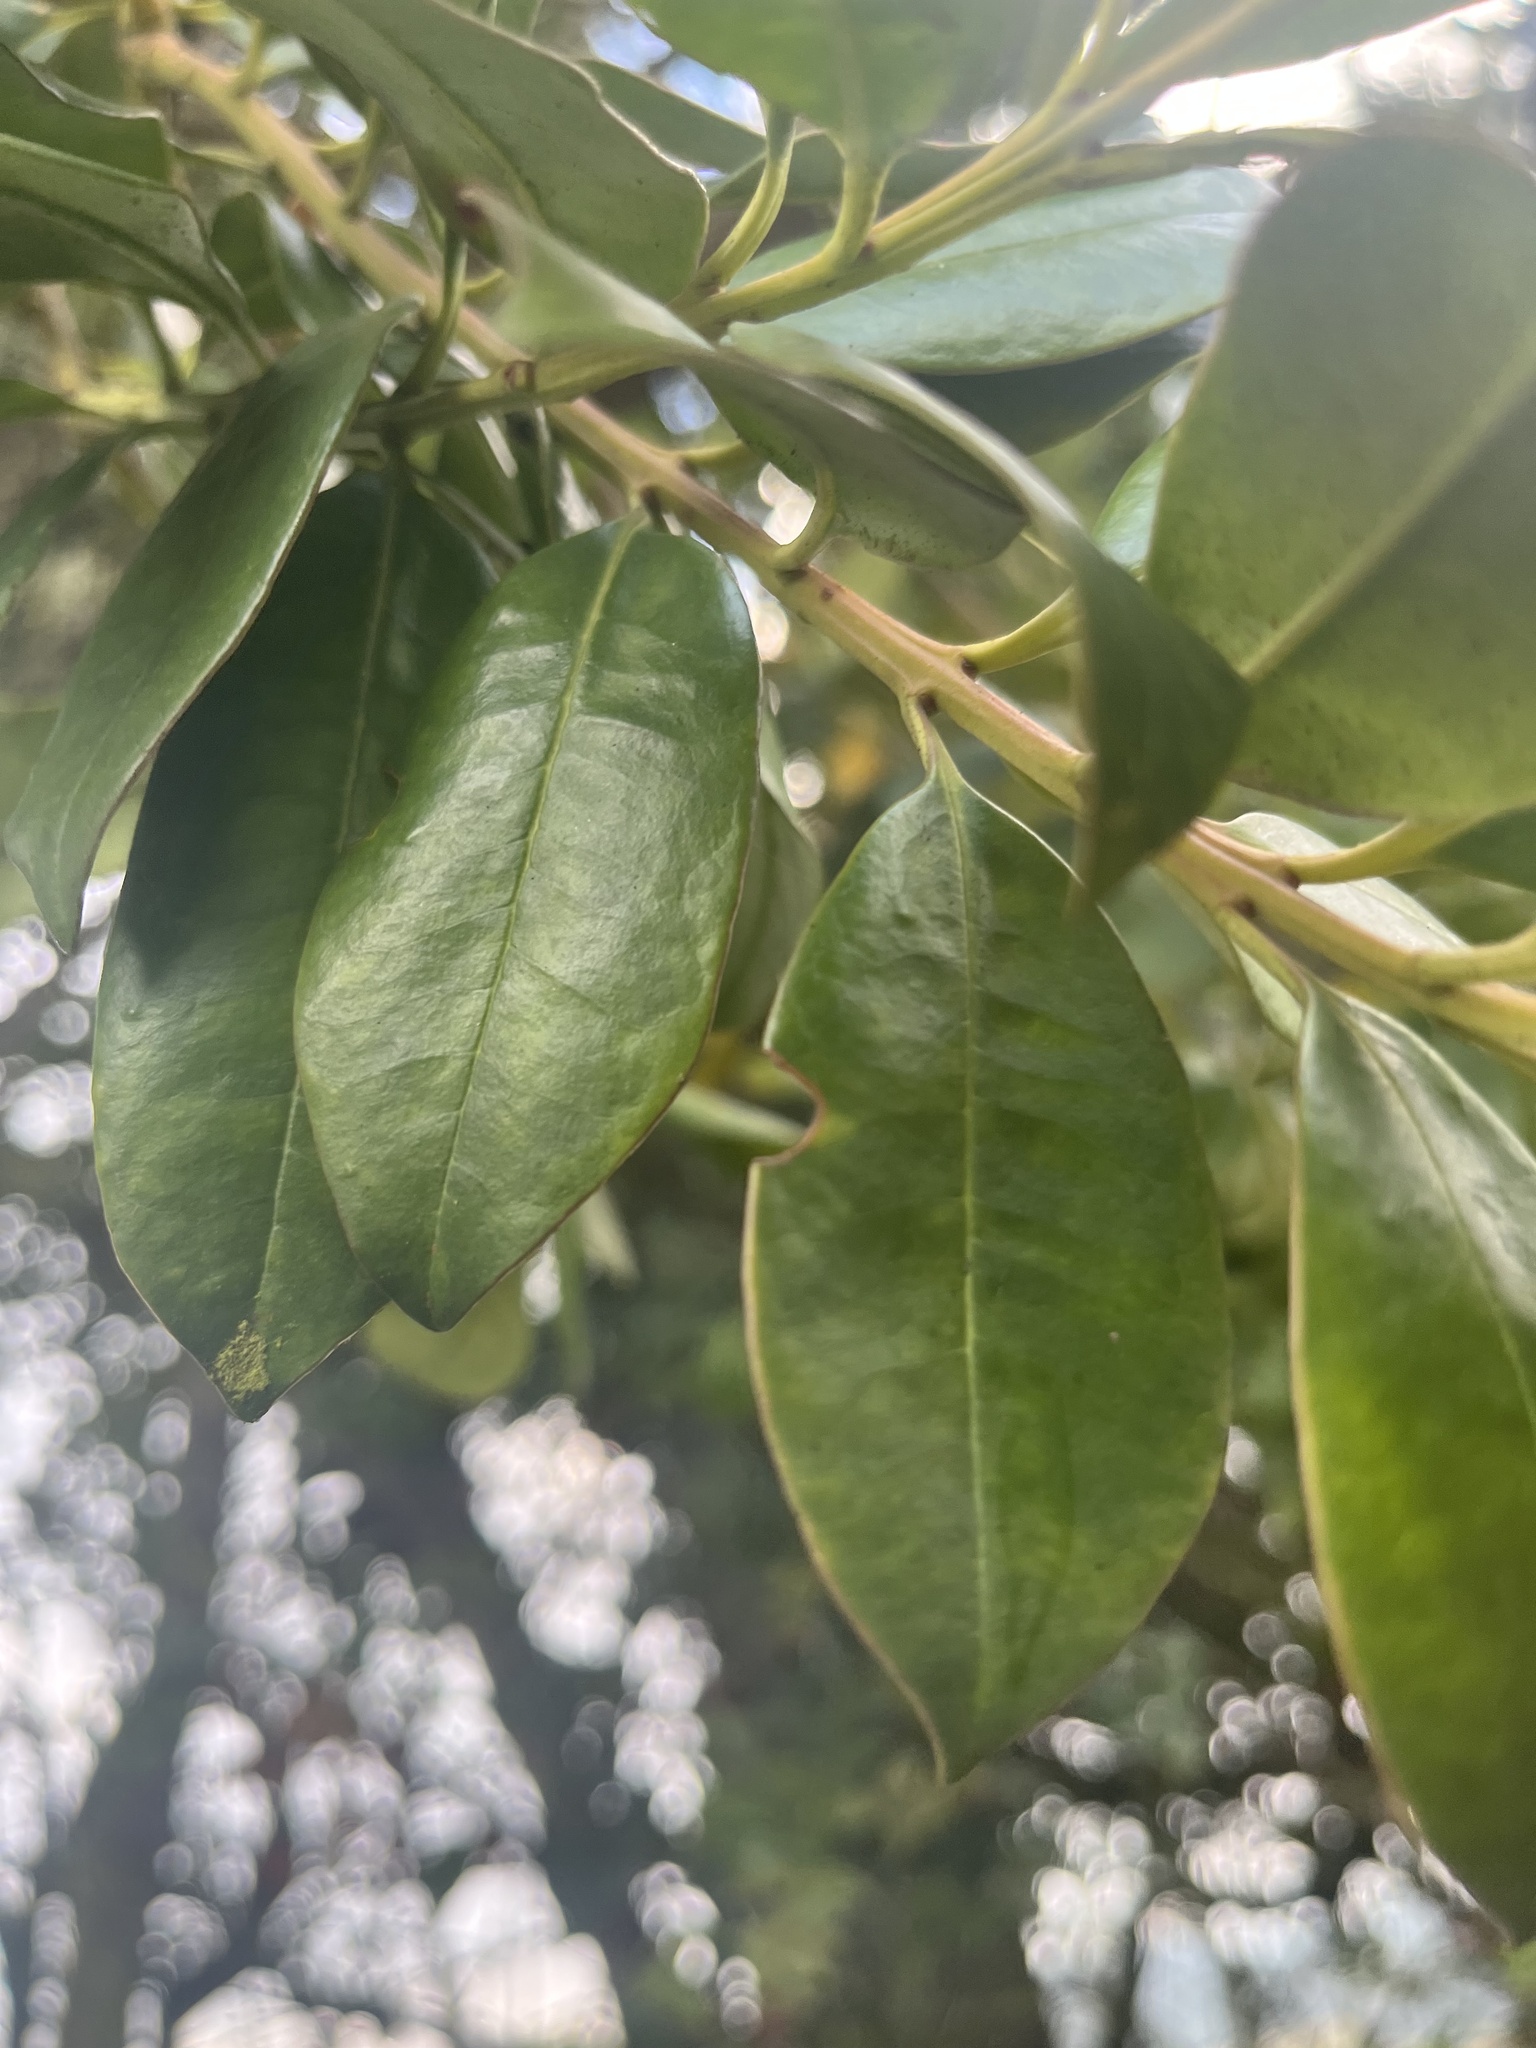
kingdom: Plantae
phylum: Tracheophyta
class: Magnoliopsida
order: Santalales
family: Loranthaceae
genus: Gaiadendron
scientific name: Gaiadendron punctatum
